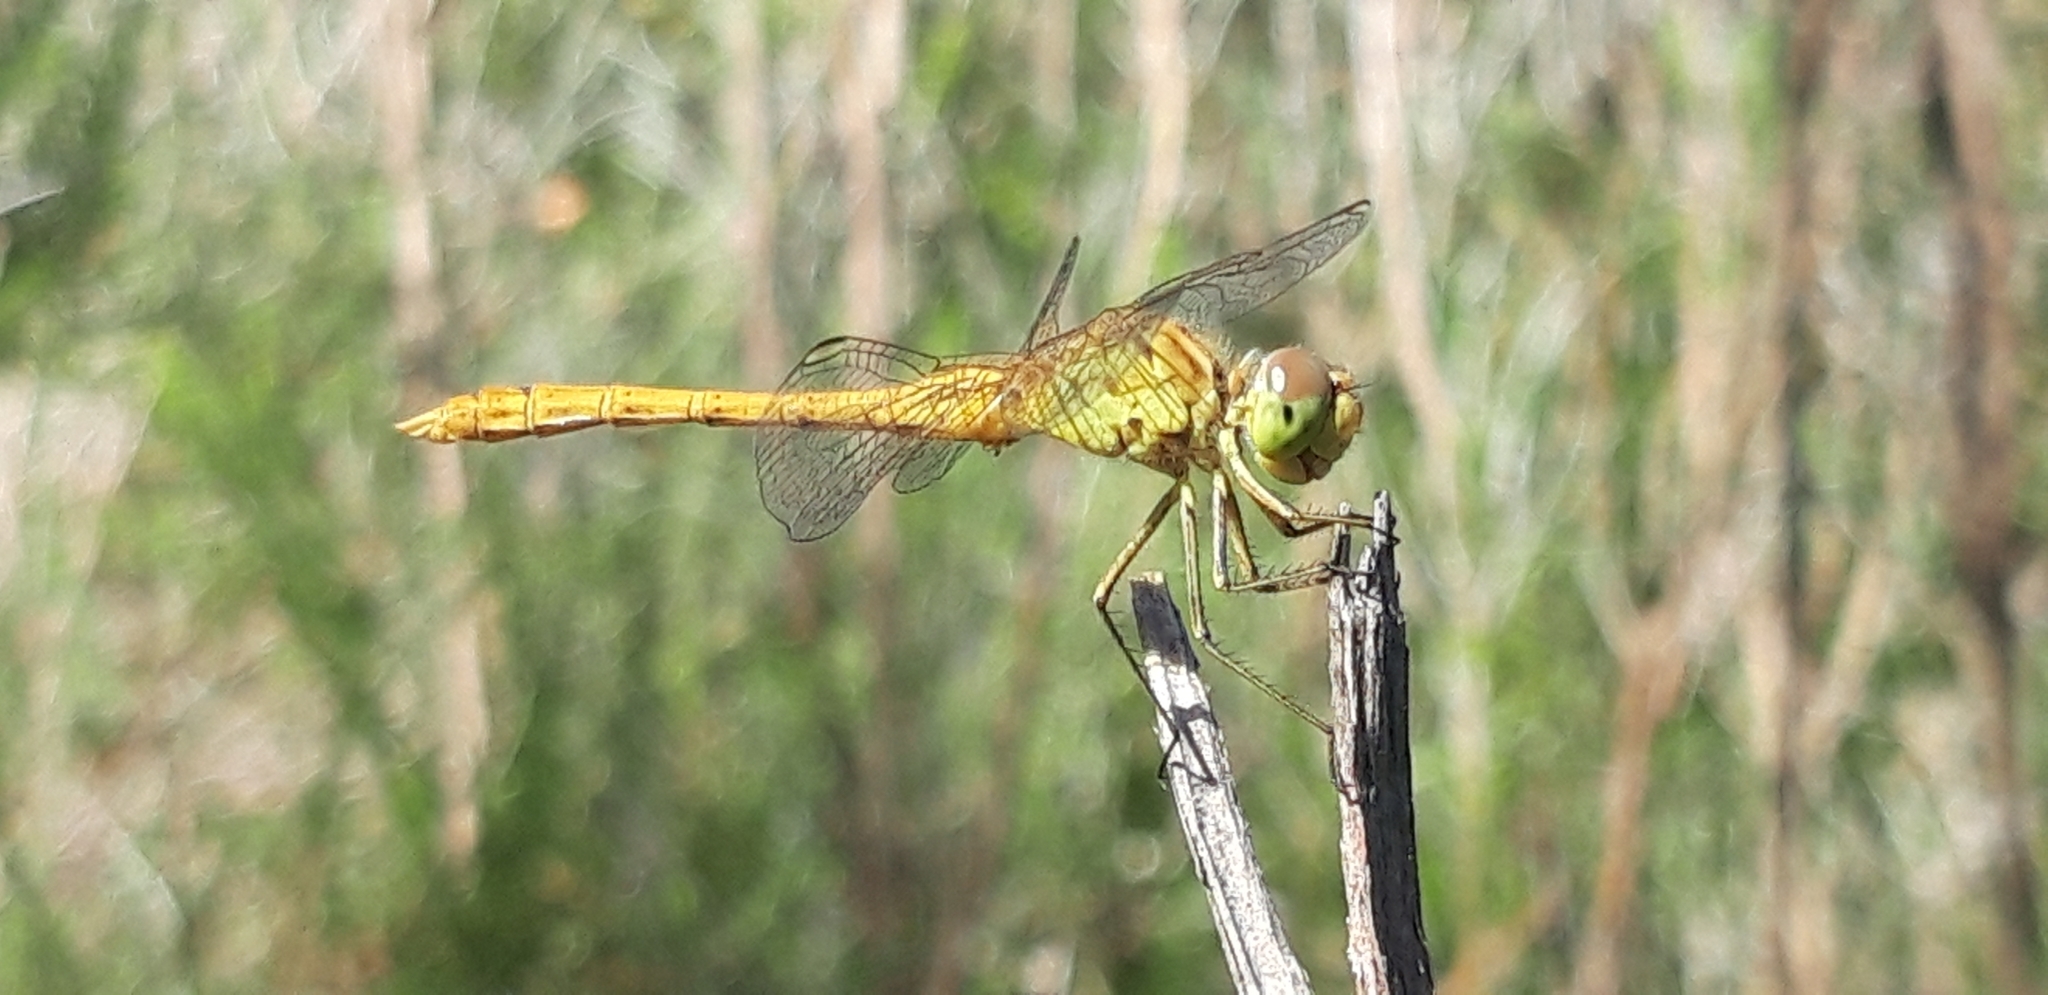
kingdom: Animalia
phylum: Arthropoda
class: Insecta
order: Odonata
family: Libellulidae
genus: Sympetrum
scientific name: Sympetrum meridionale
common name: Southern darter
